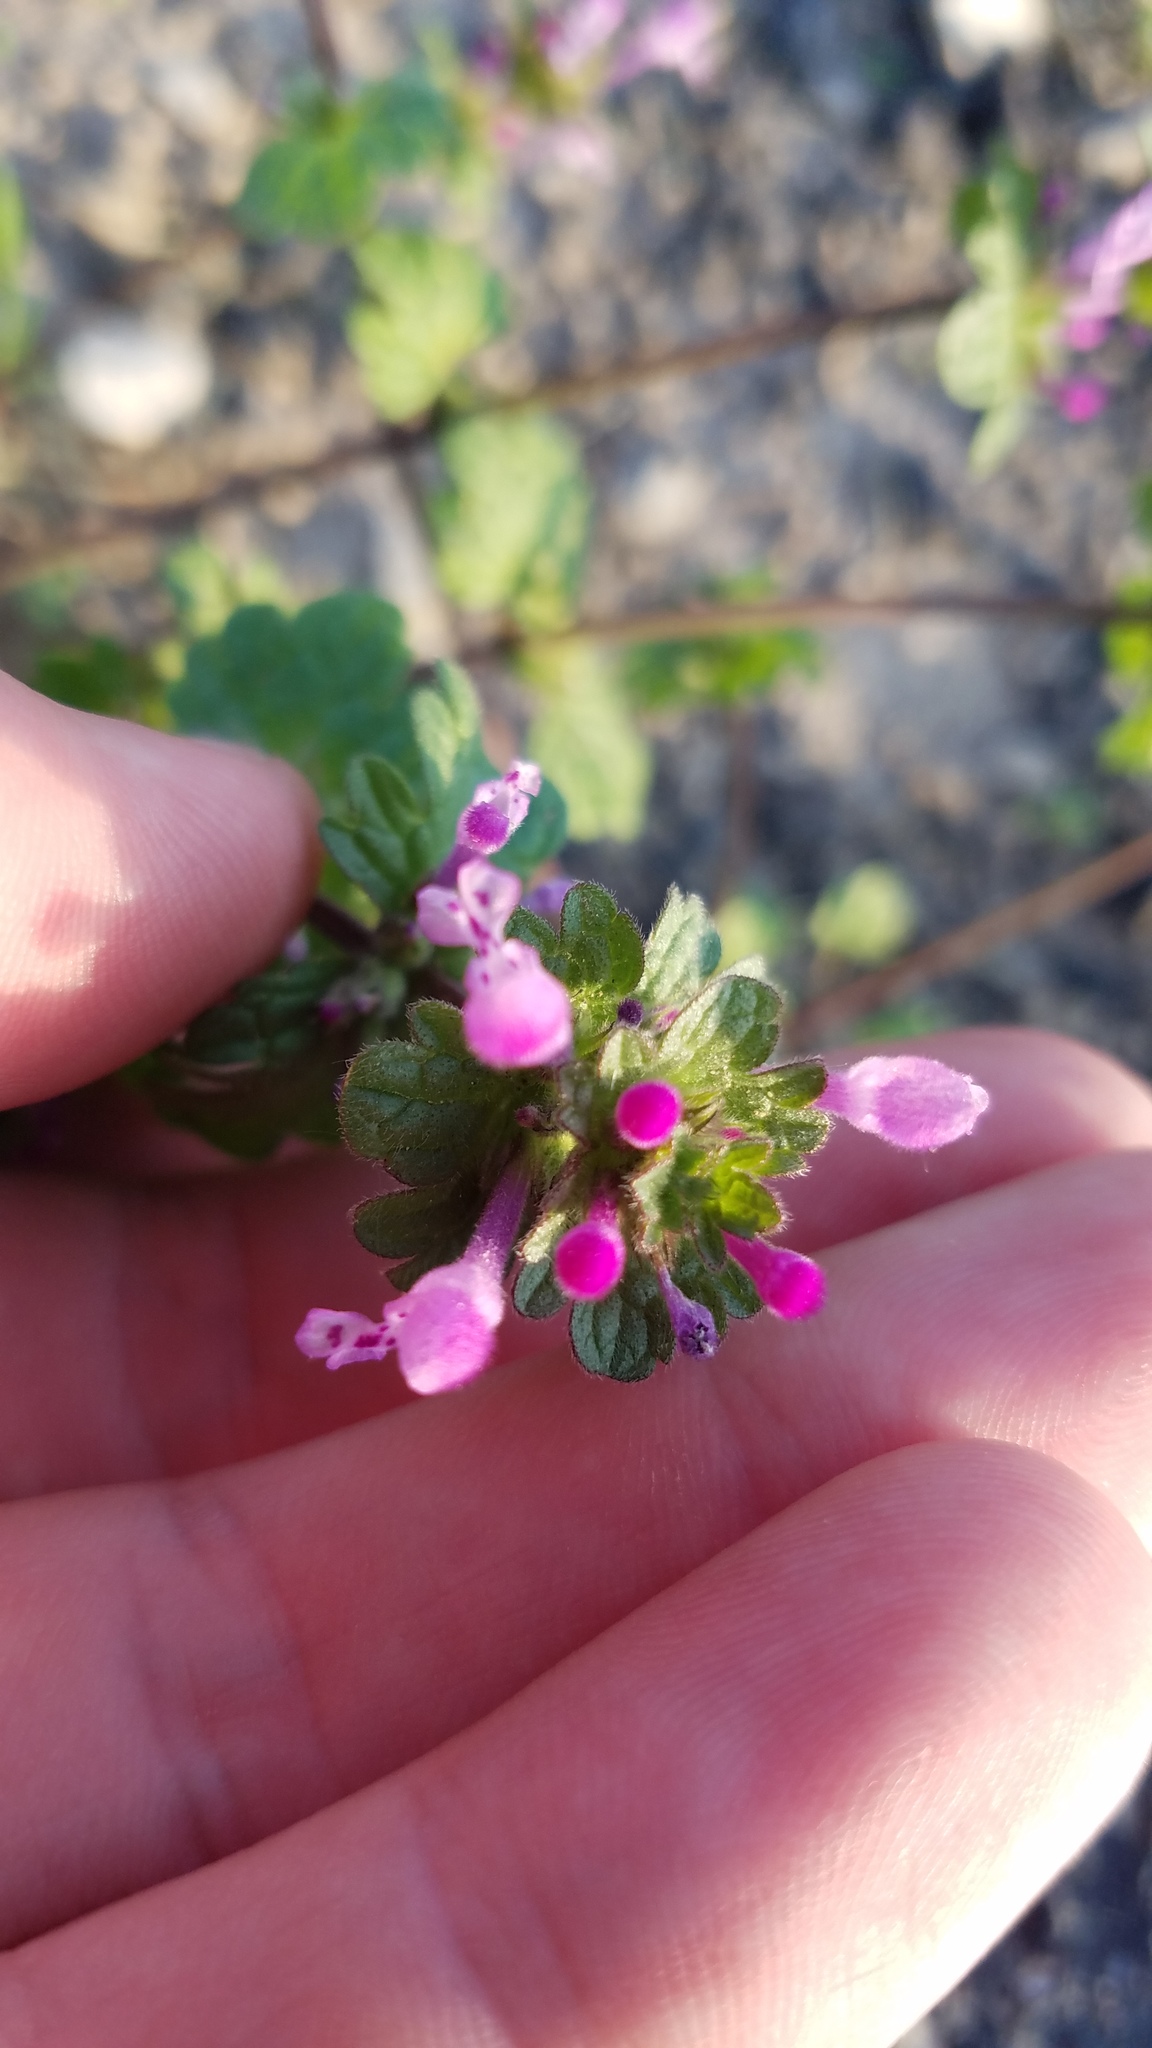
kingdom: Plantae
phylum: Tracheophyta
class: Magnoliopsida
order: Lamiales
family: Lamiaceae
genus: Lamium
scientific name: Lamium amplexicaule
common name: Henbit dead-nettle
